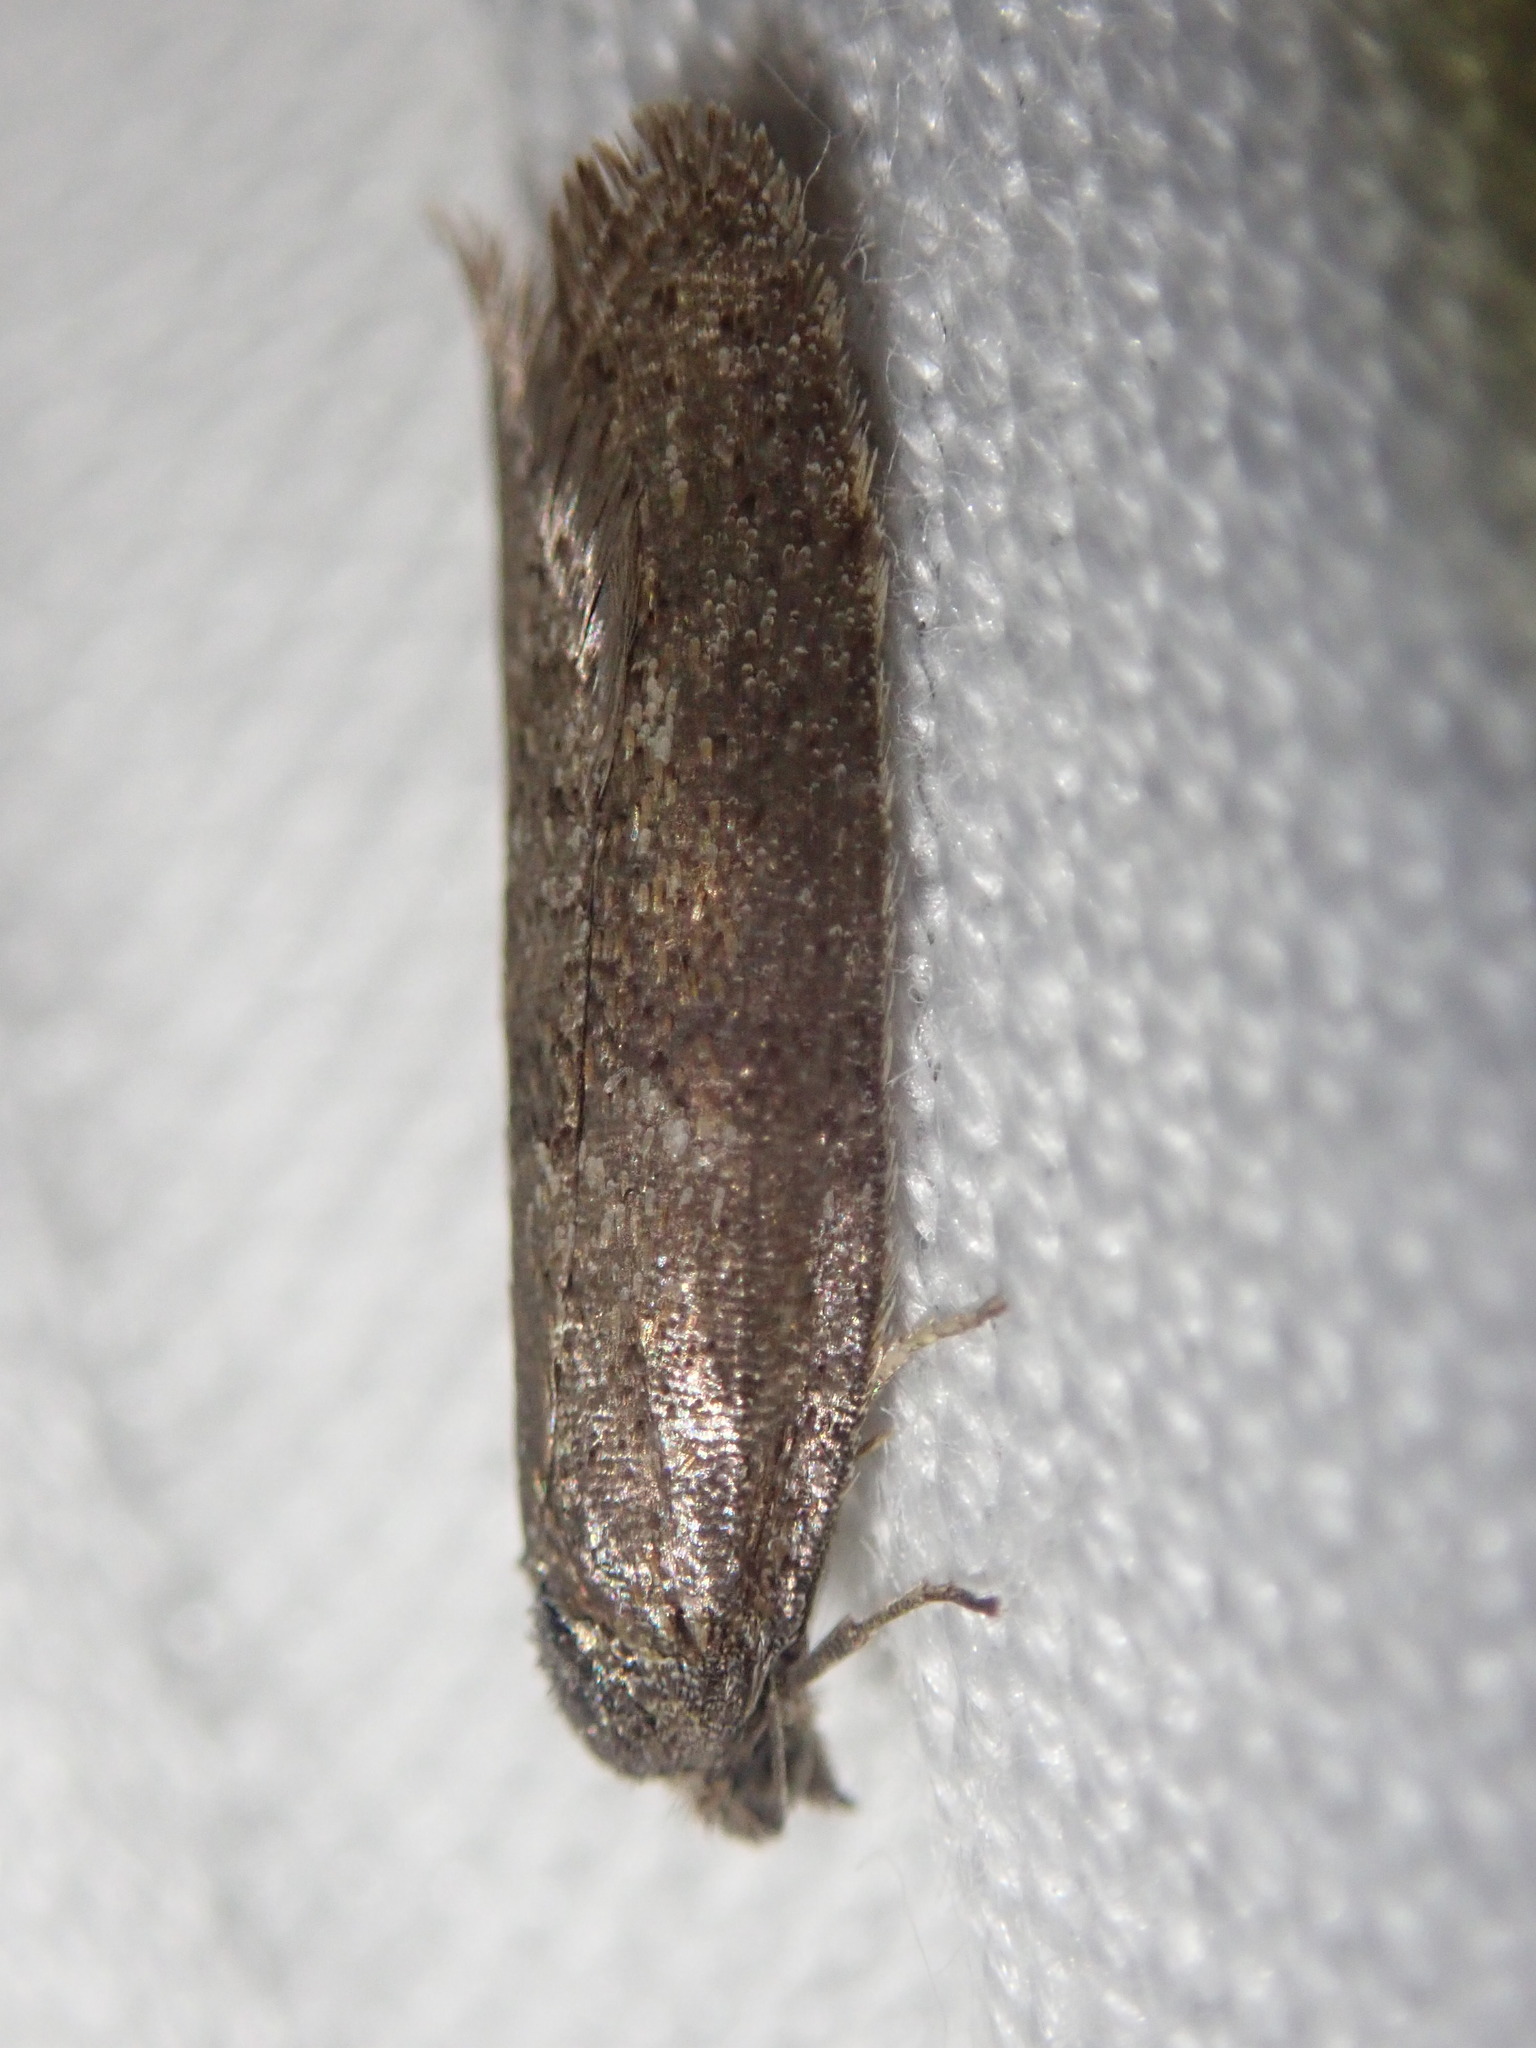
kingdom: Animalia
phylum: Arthropoda
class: Insecta
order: Lepidoptera
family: Tortricidae
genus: Tortricodes
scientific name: Tortricodes alternella
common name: Winter shade
